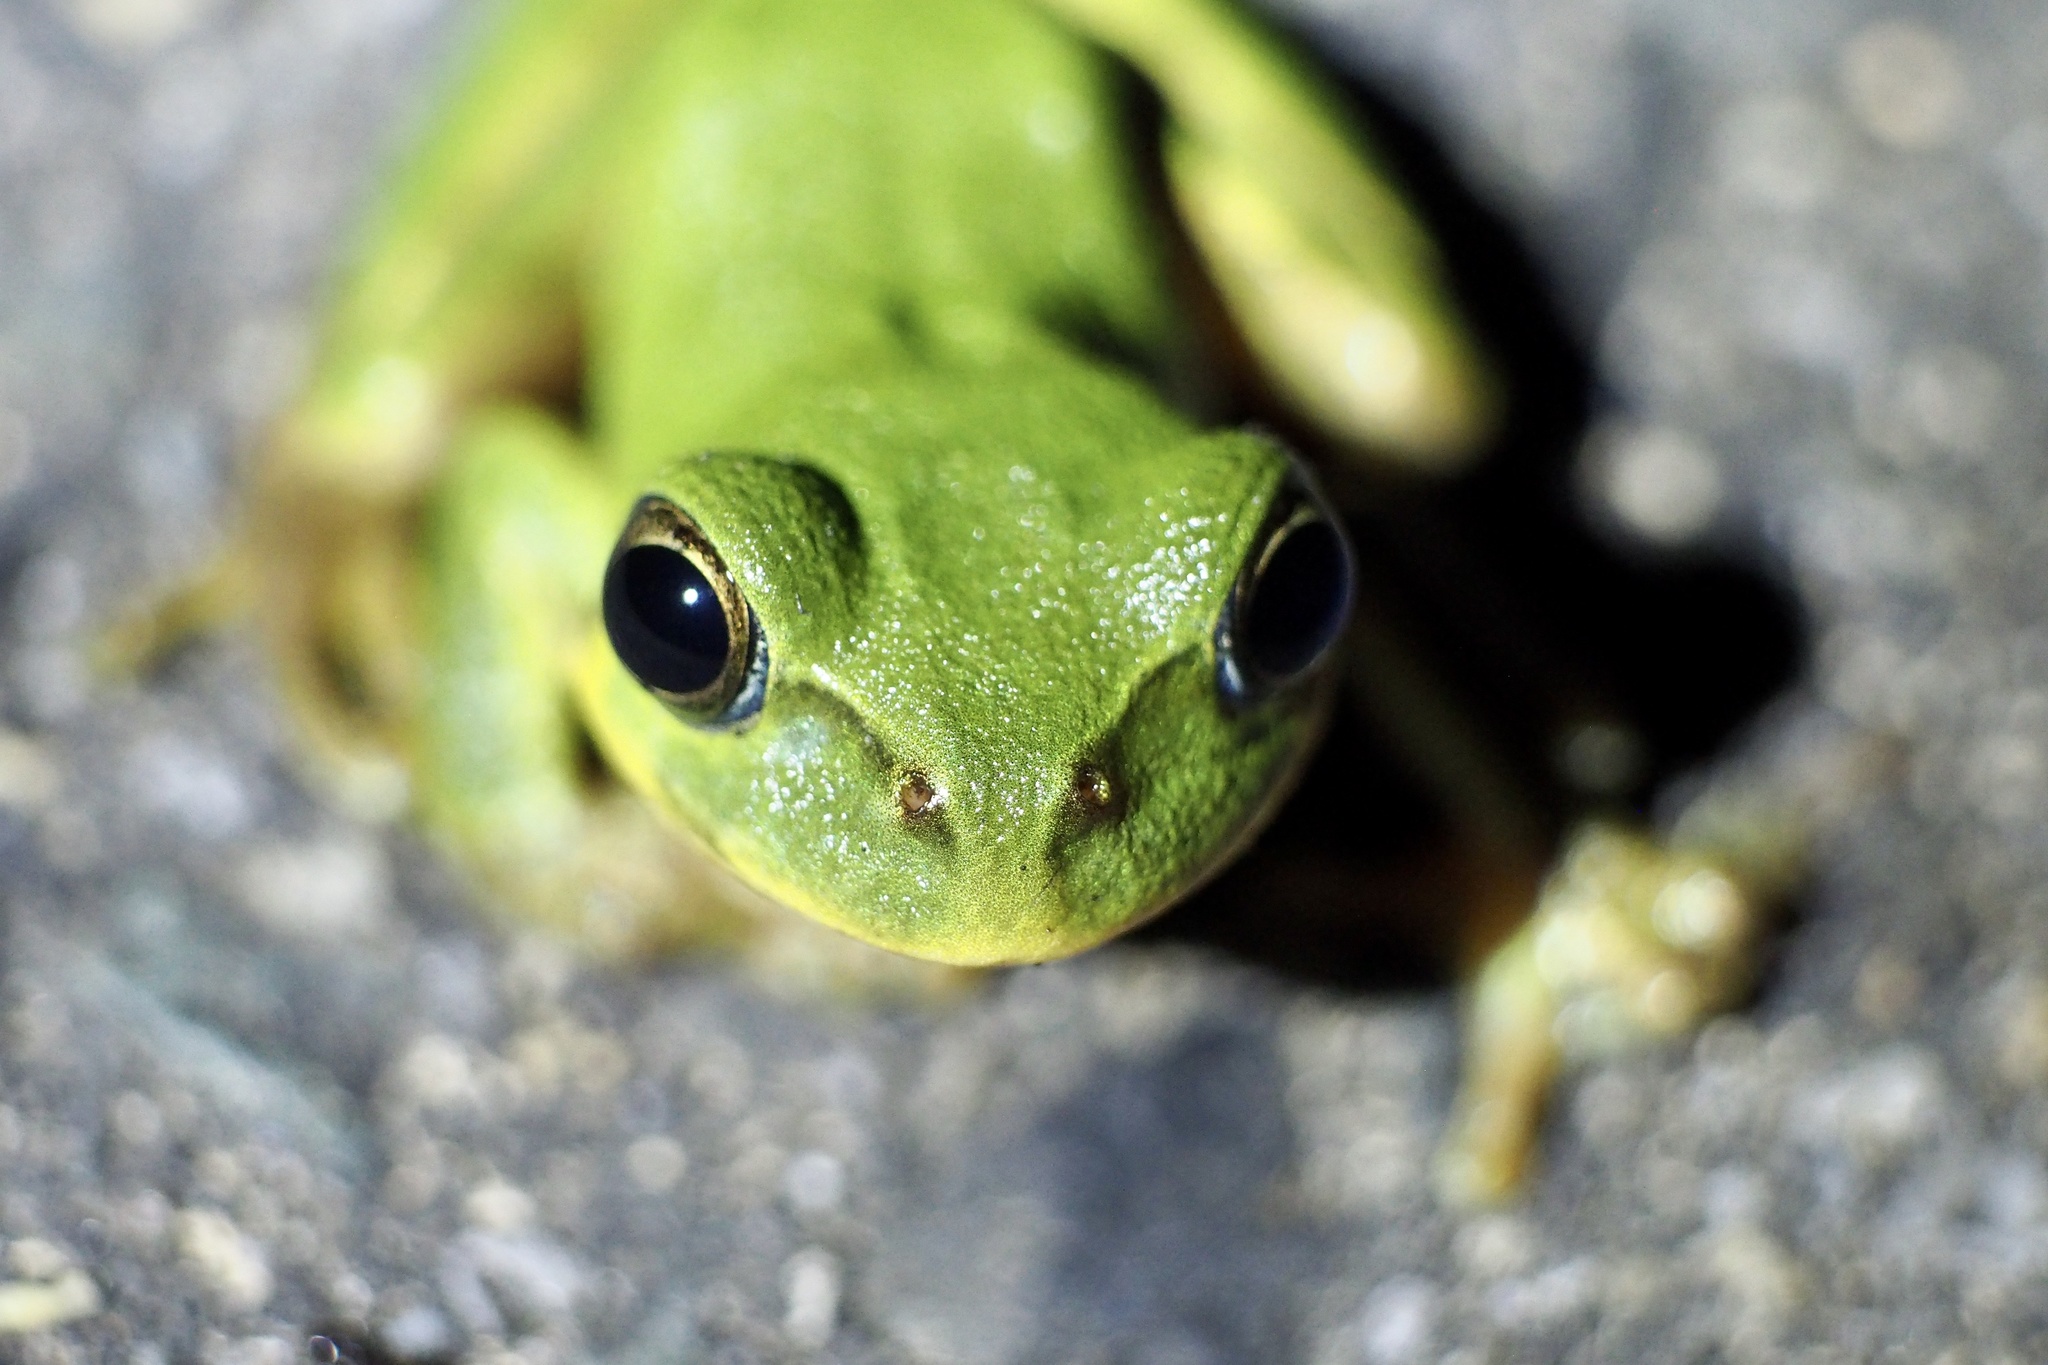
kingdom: Animalia
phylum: Chordata
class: Amphibia
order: Anura
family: Rhacophoridae
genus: Zhangixalus
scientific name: Zhangixalus schlegelii
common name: Japanese gliding frog
